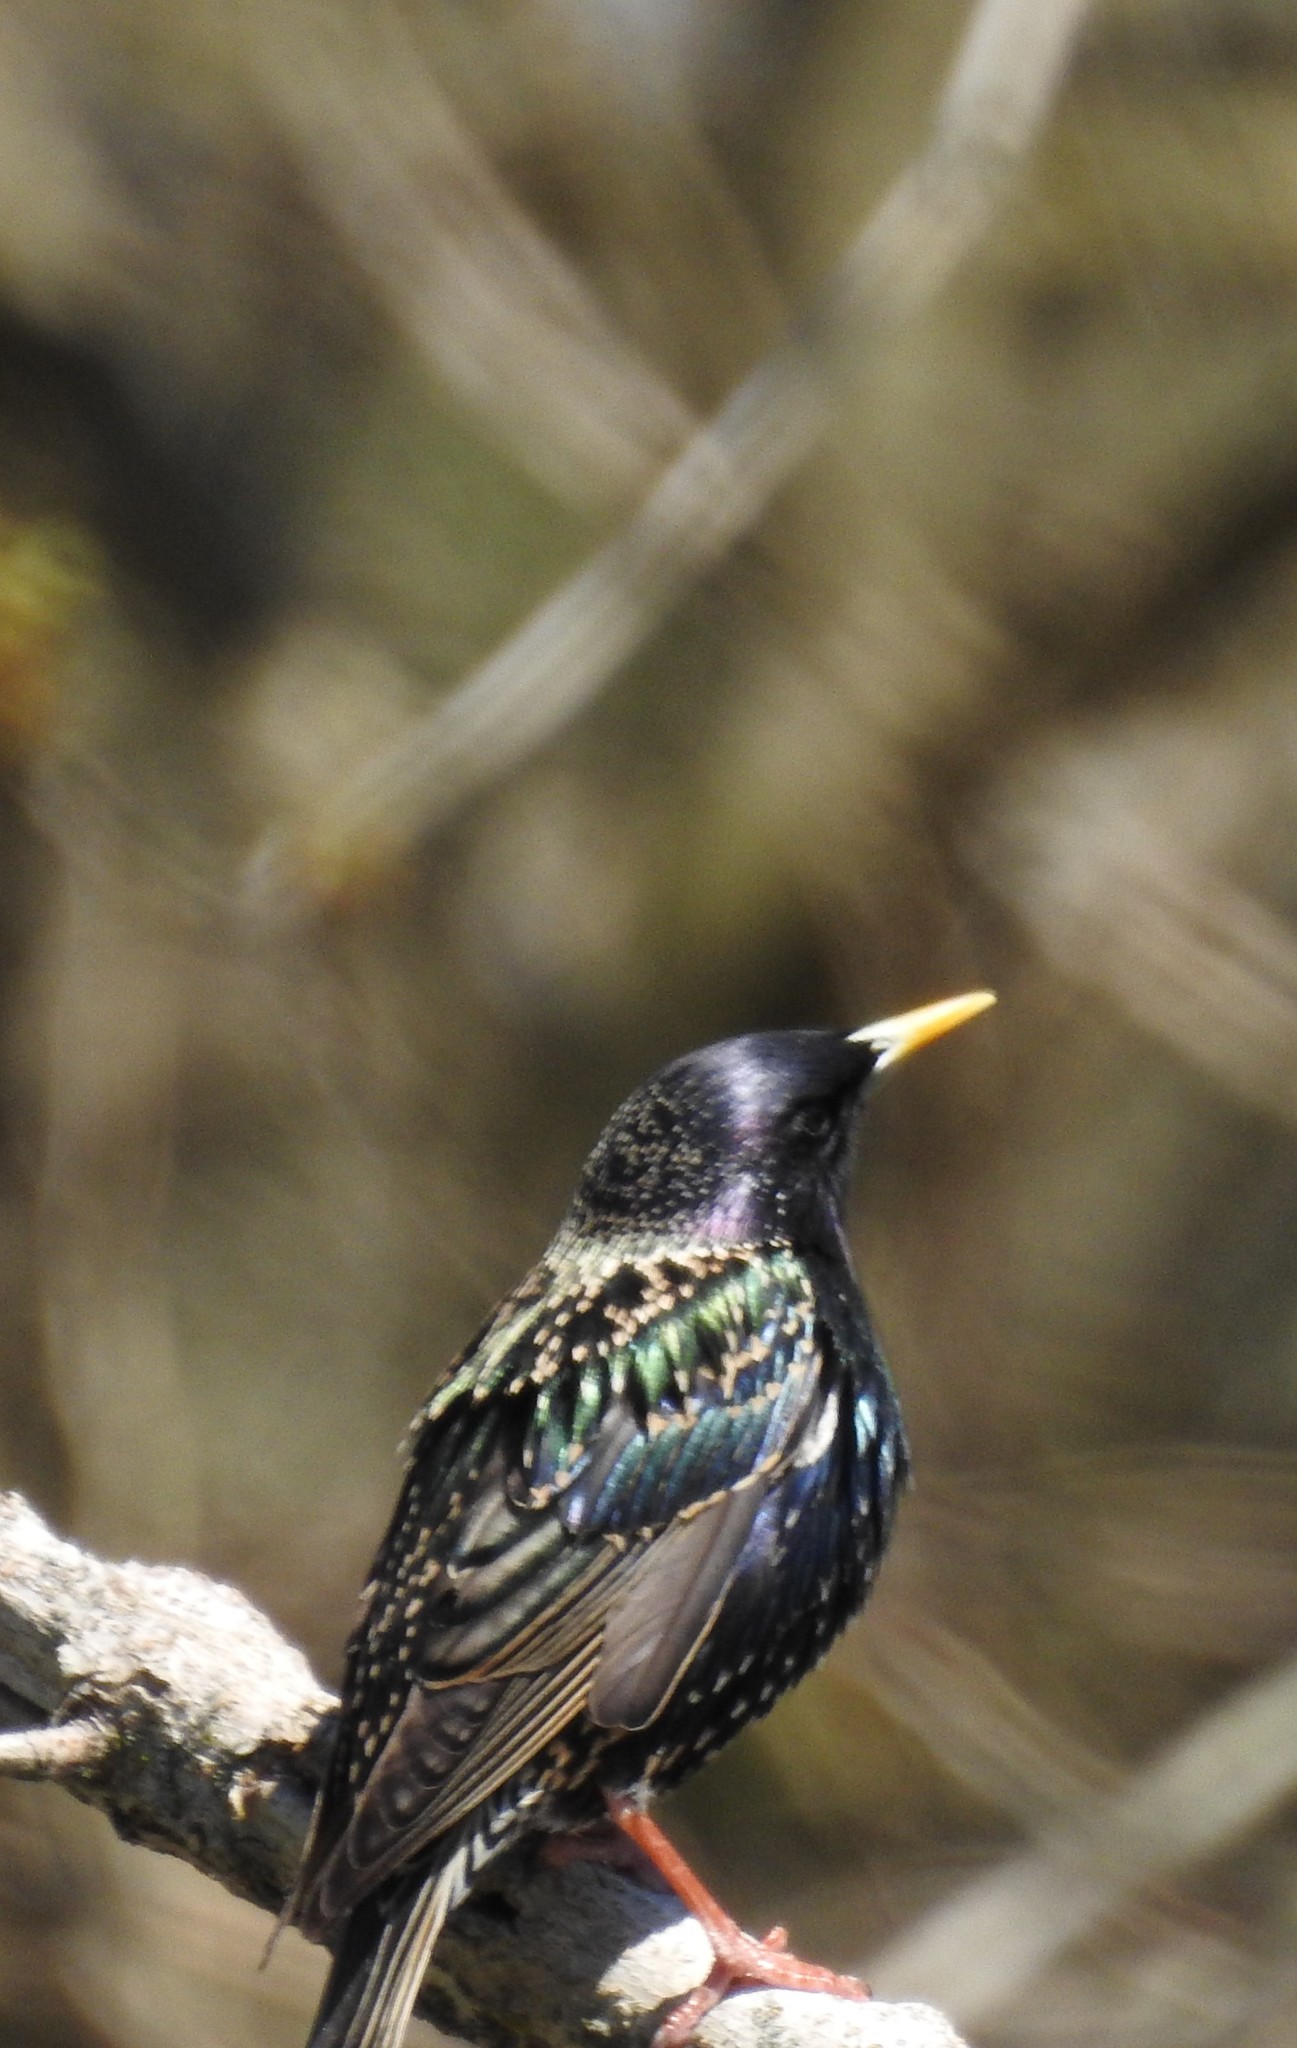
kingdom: Animalia
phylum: Chordata
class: Aves
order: Passeriformes
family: Sturnidae
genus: Sturnus
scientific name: Sturnus vulgaris
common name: Common starling
